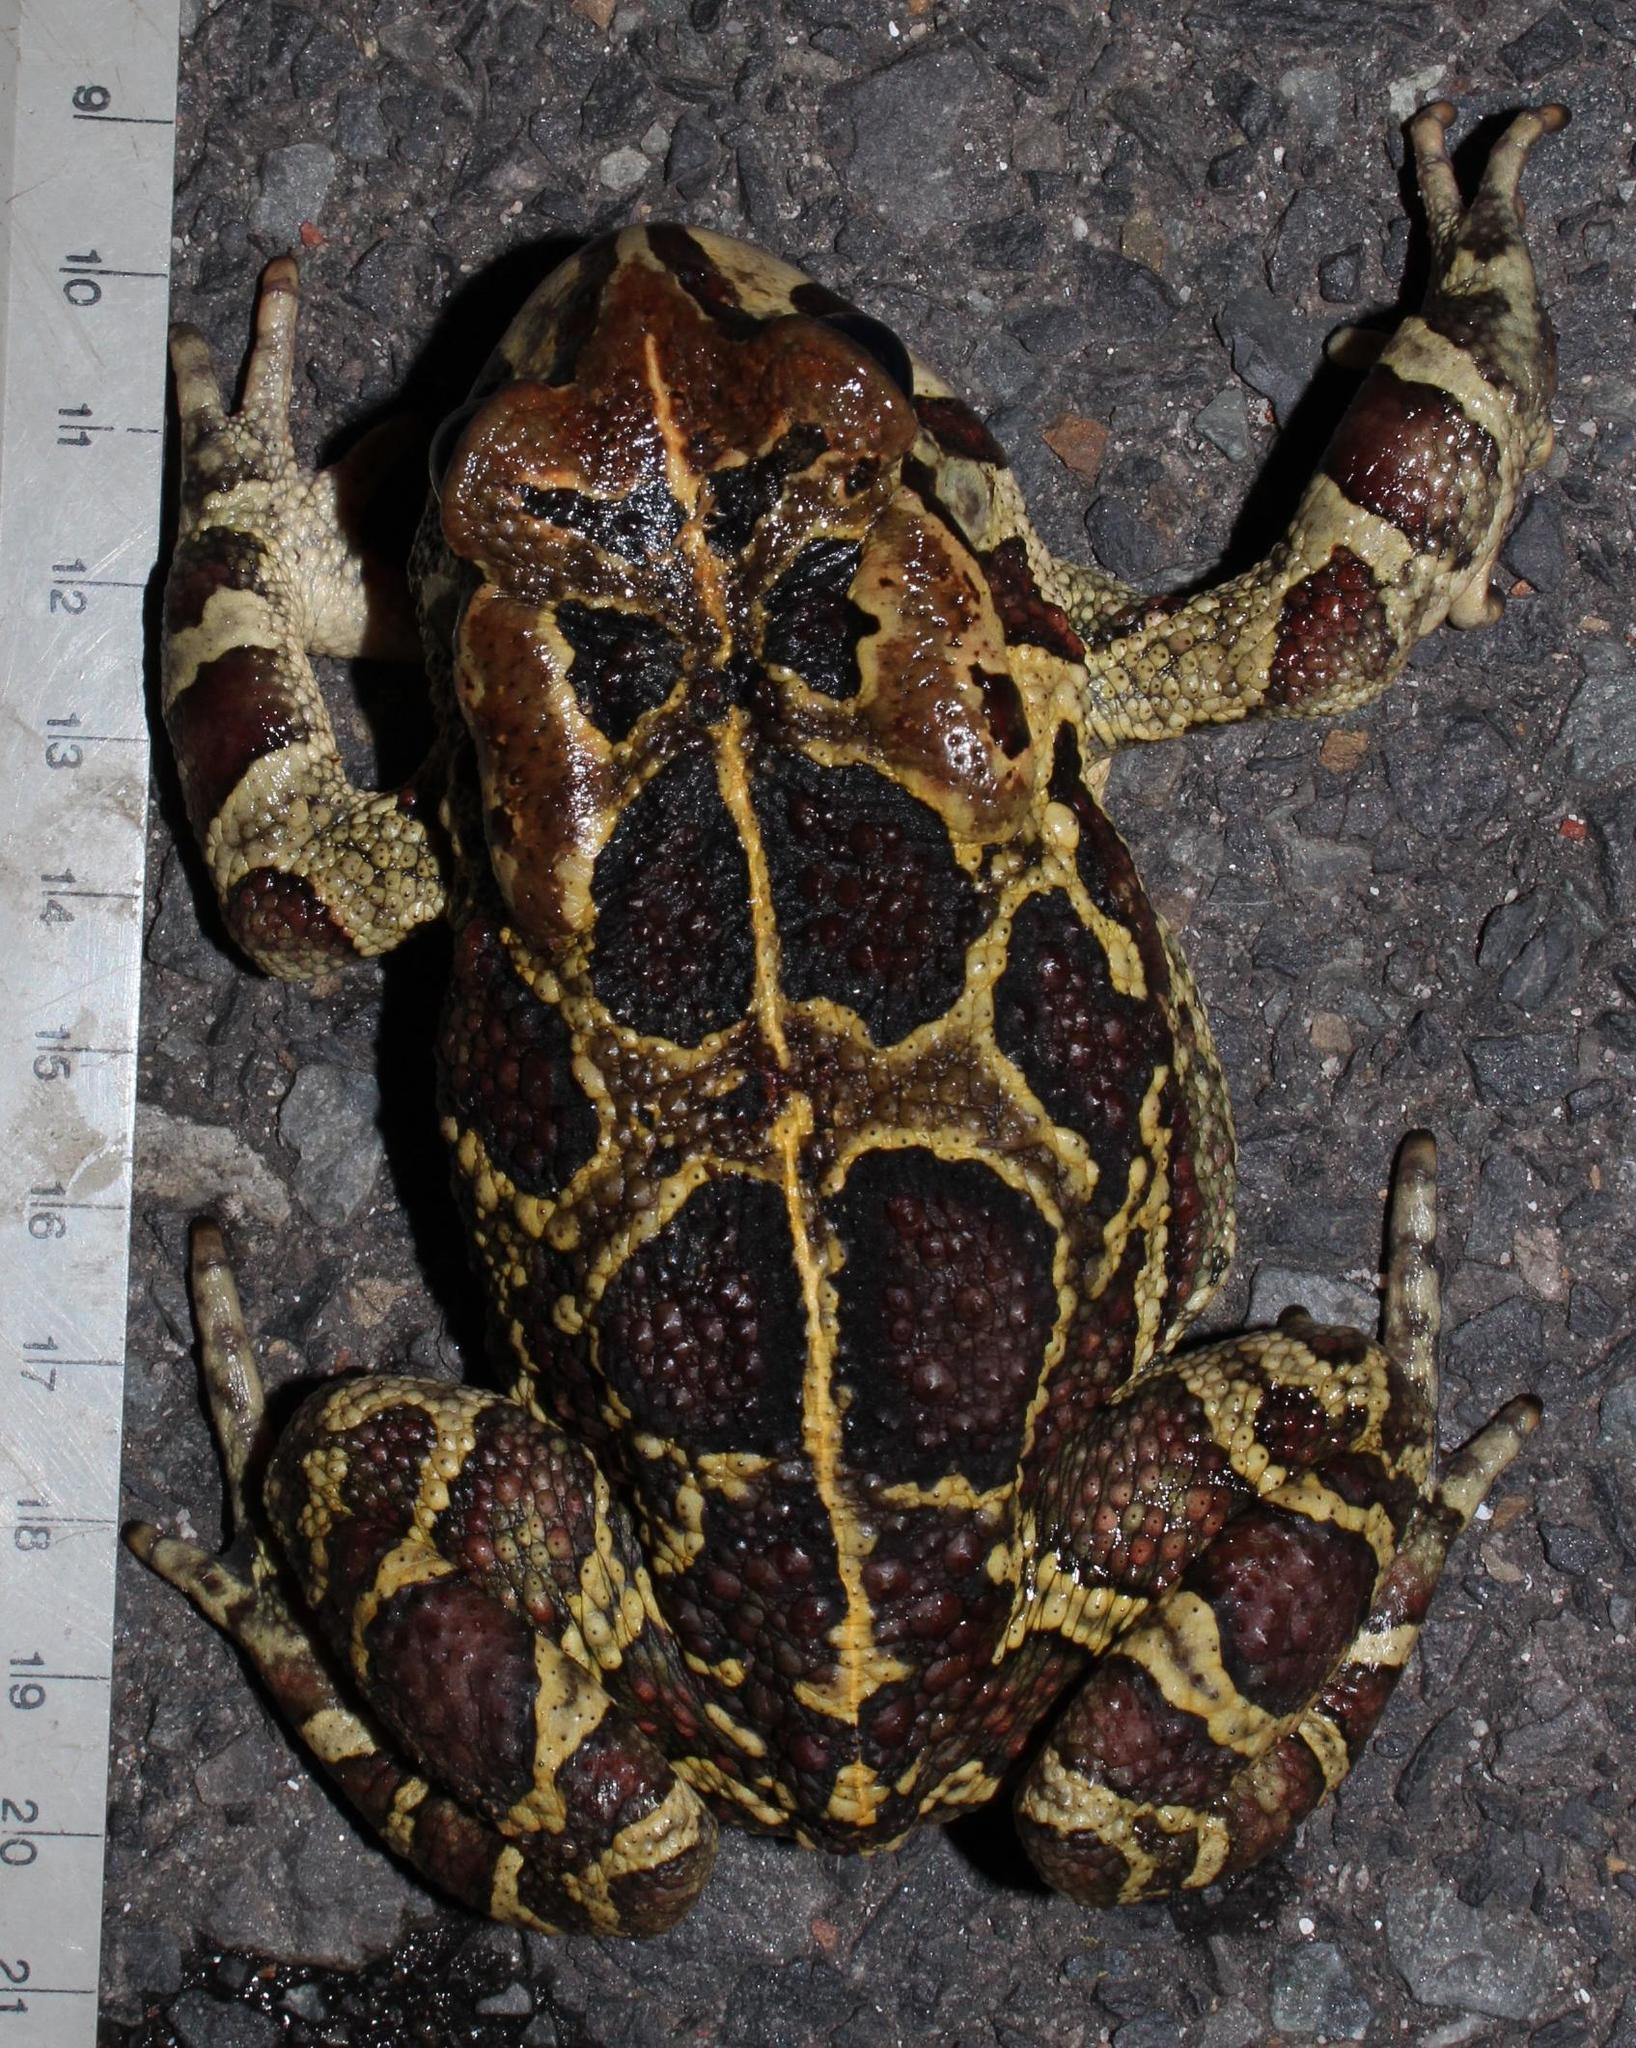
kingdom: Animalia
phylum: Chordata
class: Amphibia
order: Anura
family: Bufonidae
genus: Sclerophrys
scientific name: Sclerophrys pantherina
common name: Panther toad
